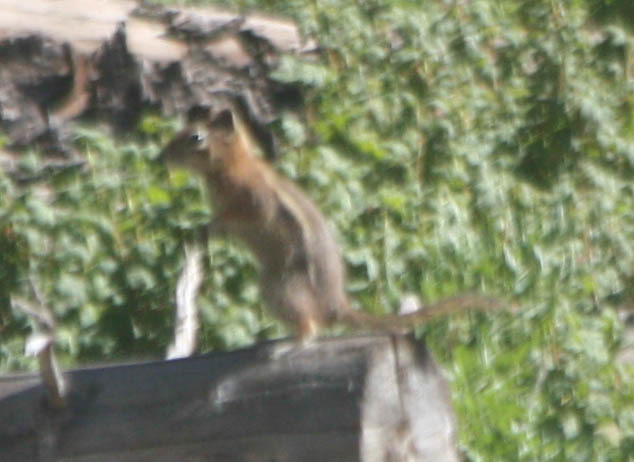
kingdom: Animalia
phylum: Chordata
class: Mammalia
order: Rodentia
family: Sciuridae
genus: Callospermophilus
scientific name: Callospermophilus lateralis
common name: Golden-mantled ground squirrel
